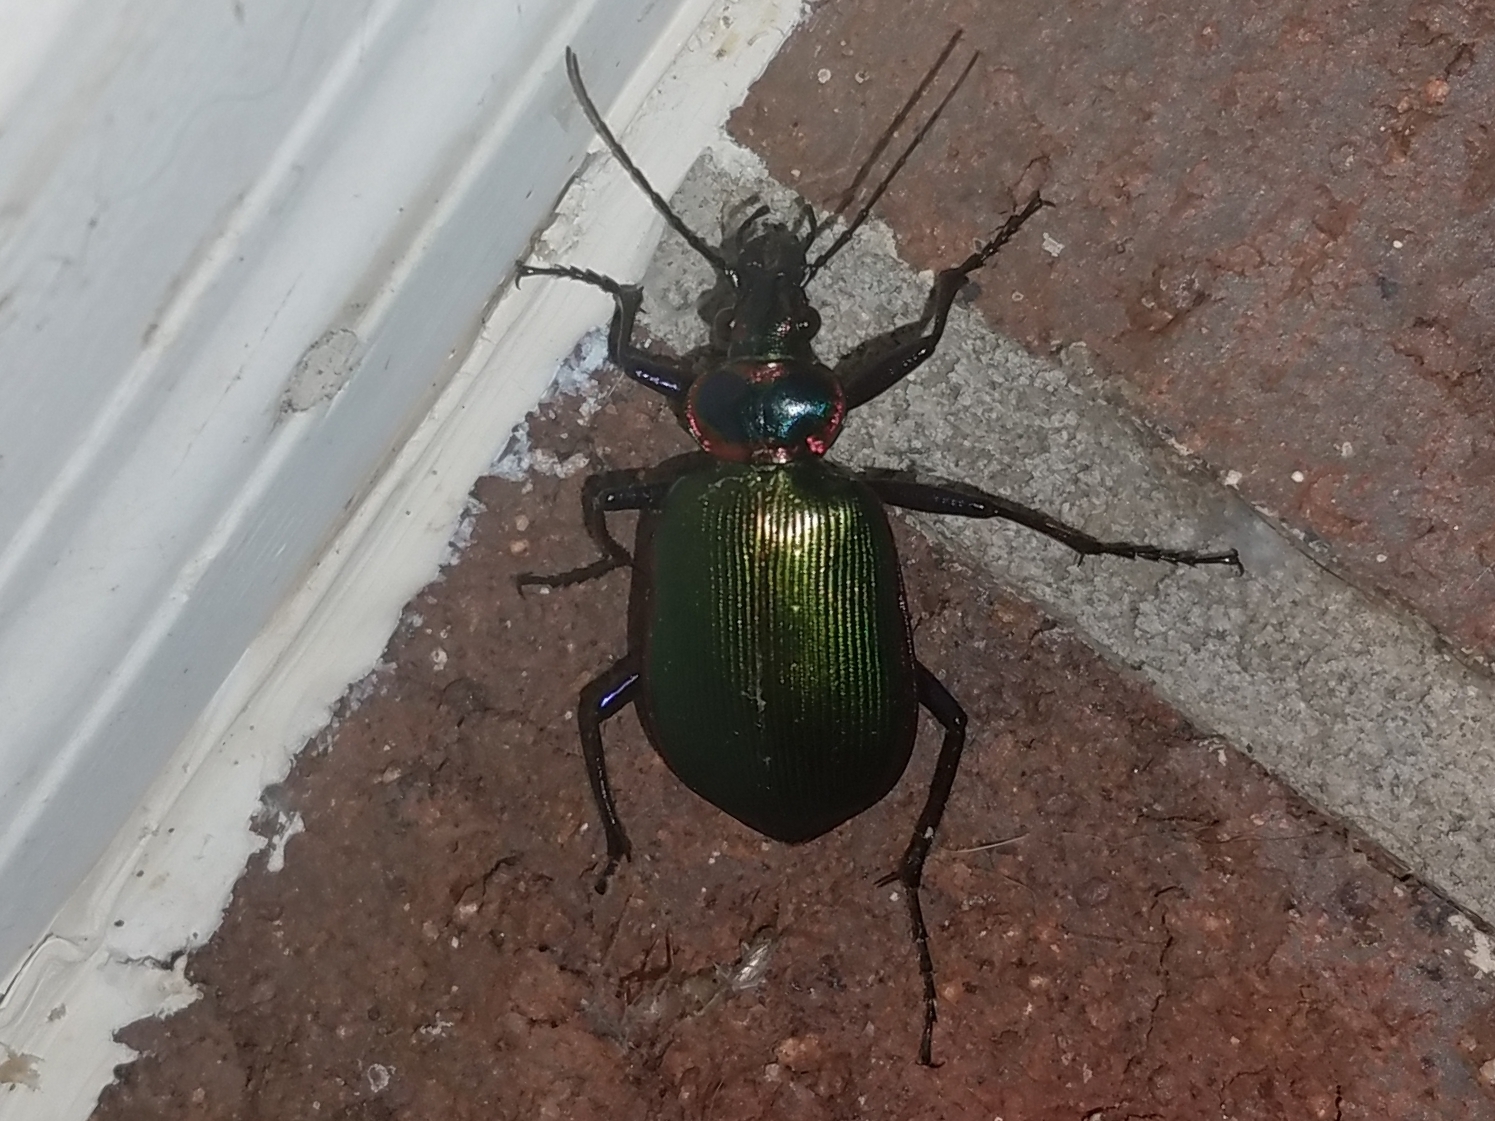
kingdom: Animalia
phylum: Arthropoda
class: Insecta
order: Coleoptera
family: Carabidae
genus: Calosoma
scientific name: Calosoma scrutator
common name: Fiery searcher beetle
